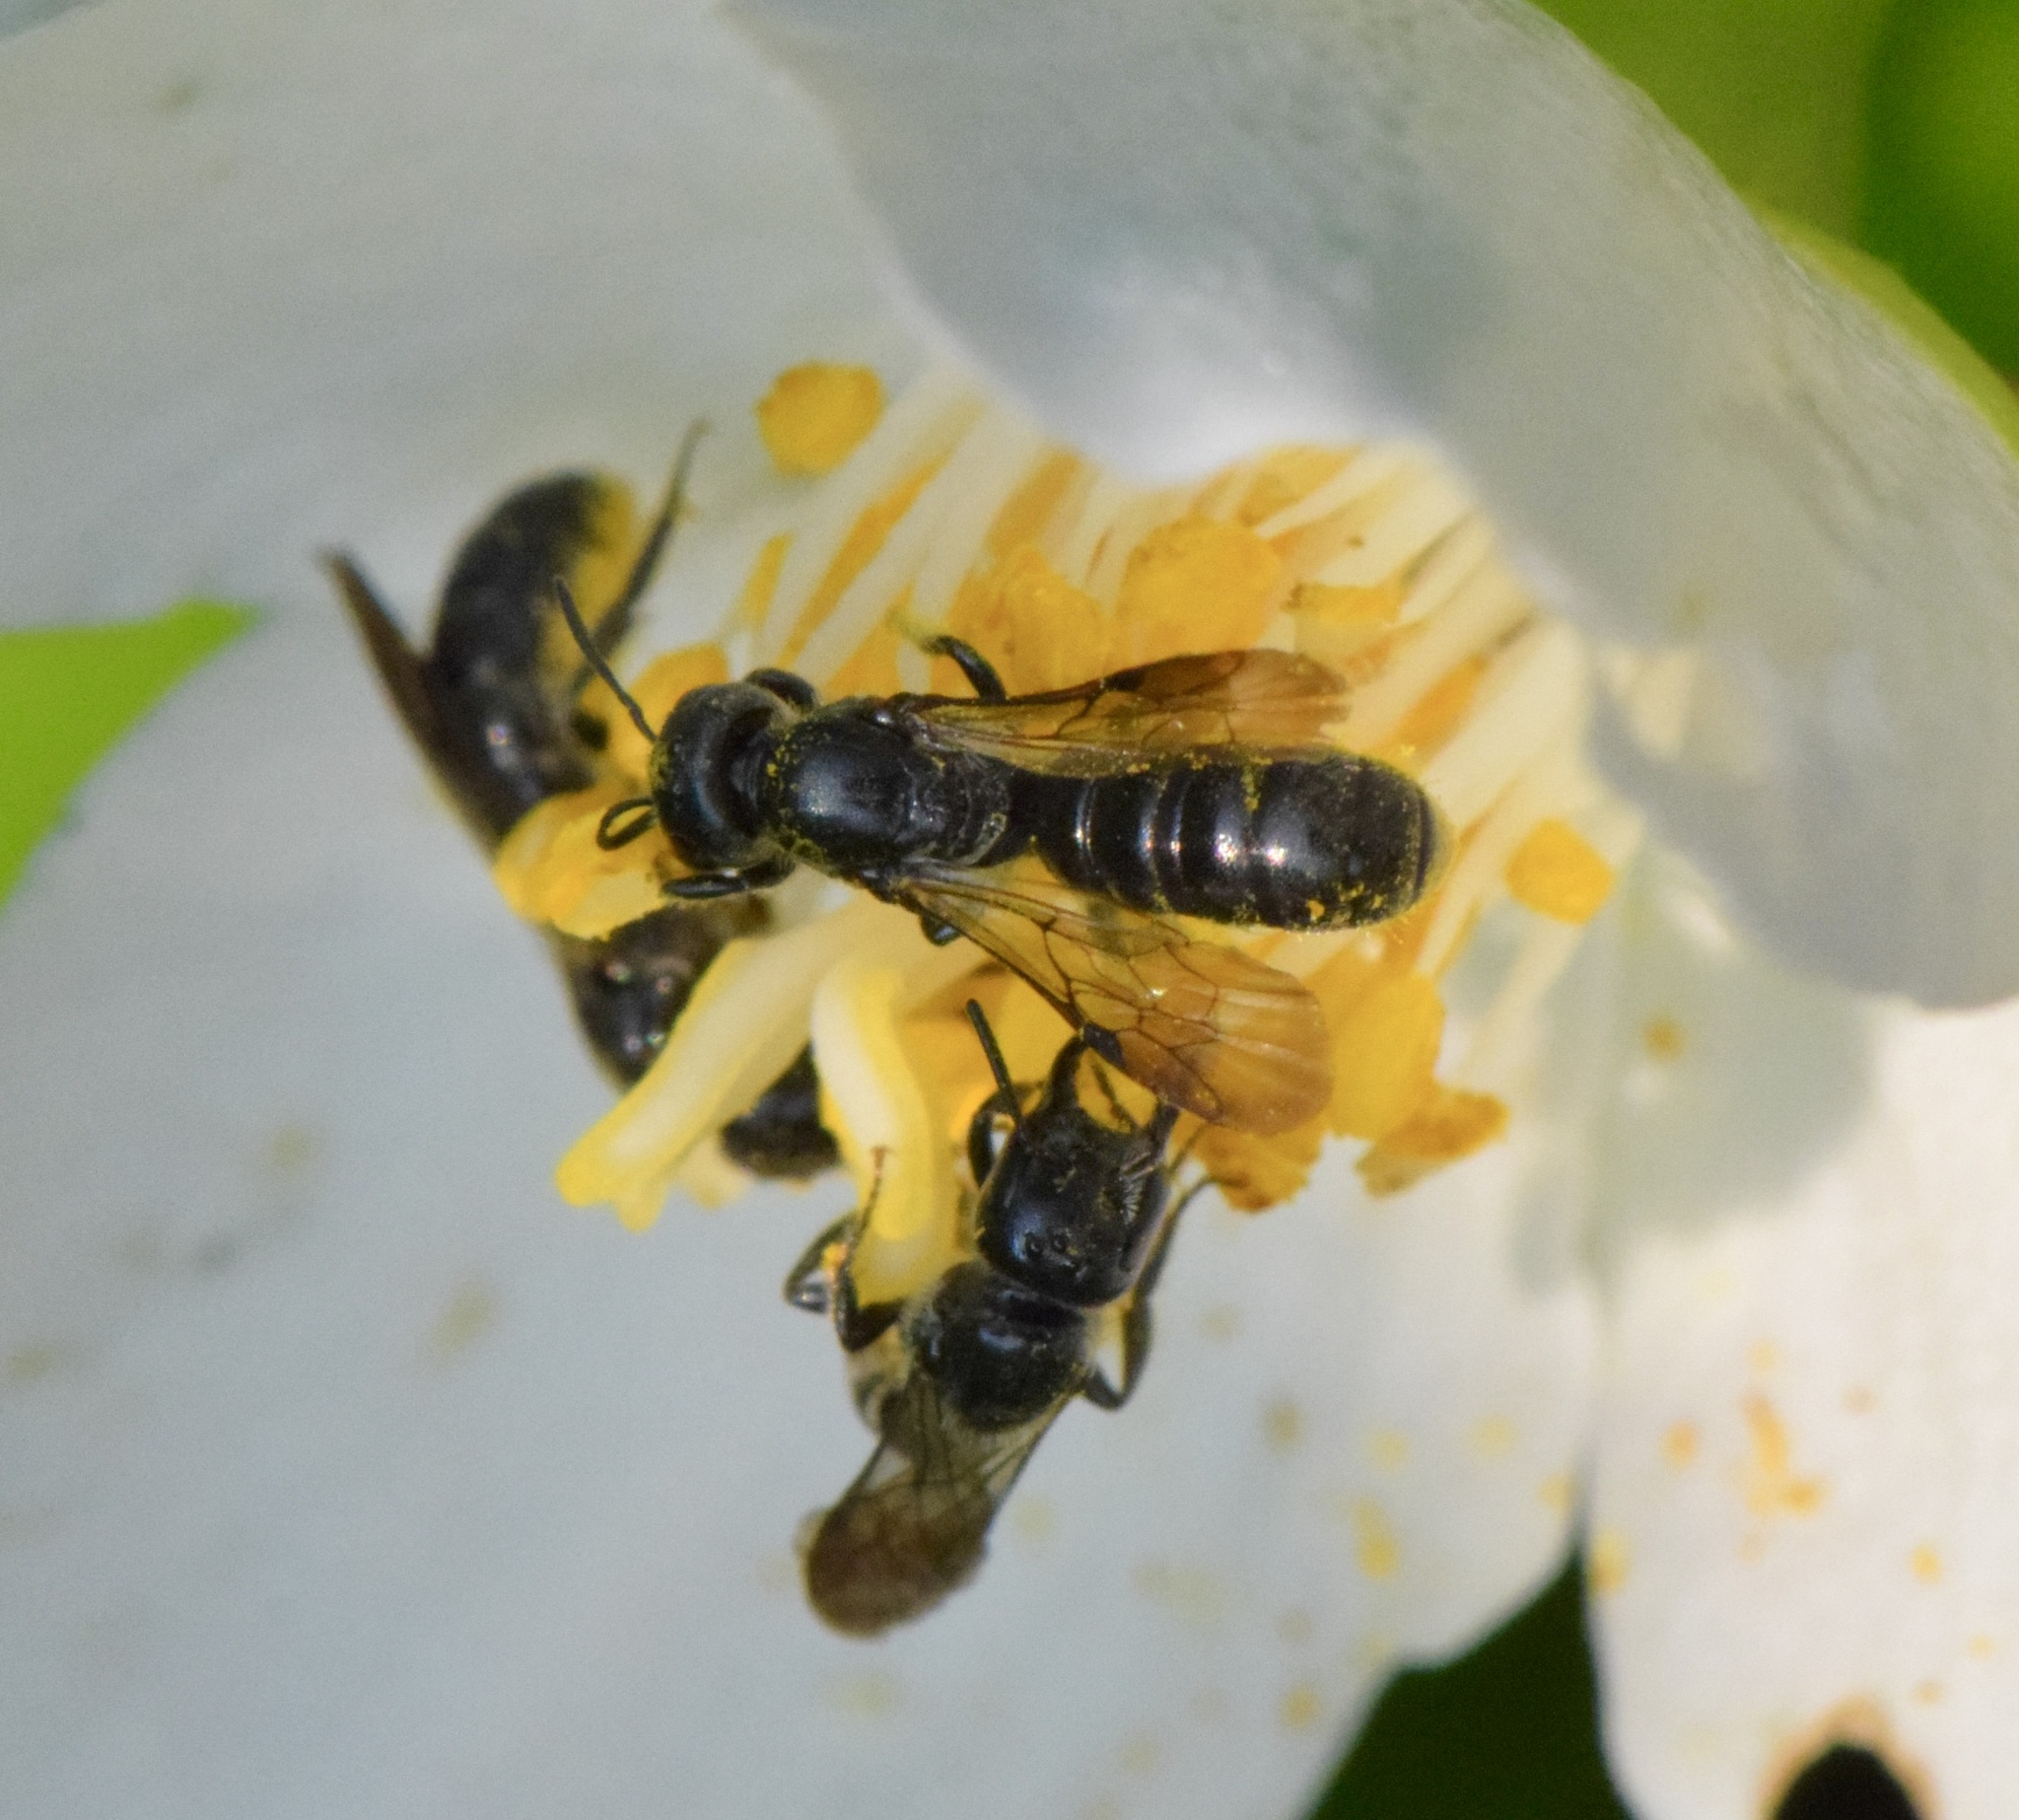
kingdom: Animalia
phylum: Arthropoda
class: Insecta
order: Hymenoptera
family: Megachilidae
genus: Chelostoma
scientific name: Chelostoma philadelphi
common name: Mock-orange scissor bee
